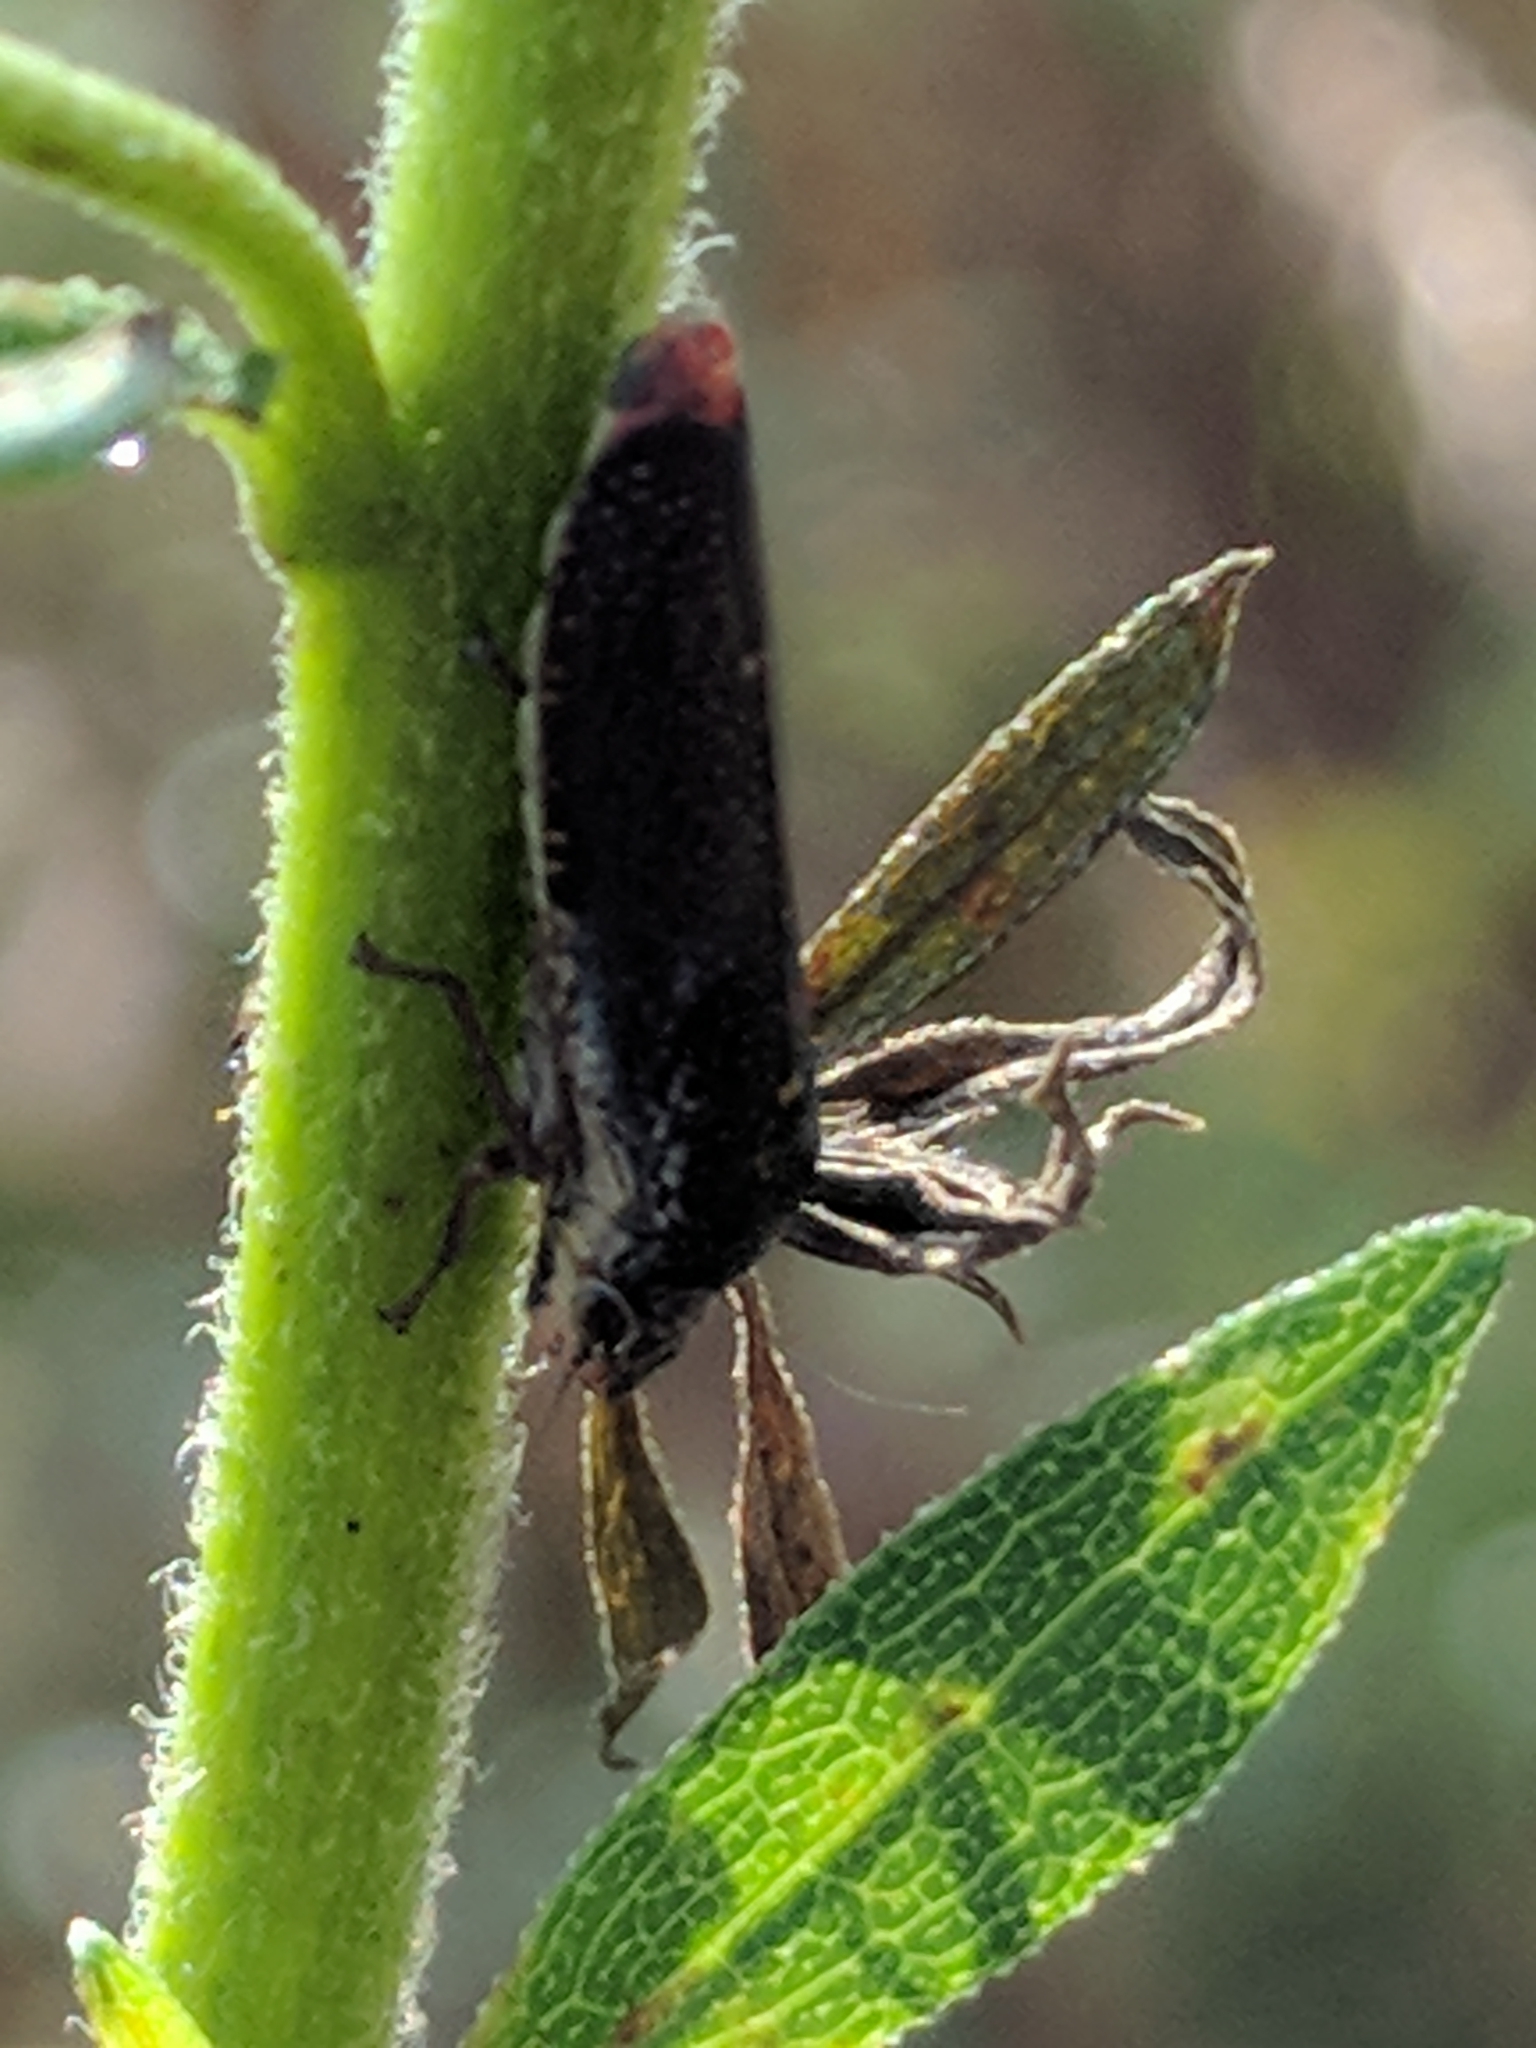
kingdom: Animalia
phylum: Arthropoda
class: Insecta
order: Hemiptera
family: Cicadellidae
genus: Paraulacizes
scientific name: Paraulacizes irrorata
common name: Speckled sharpshooter
